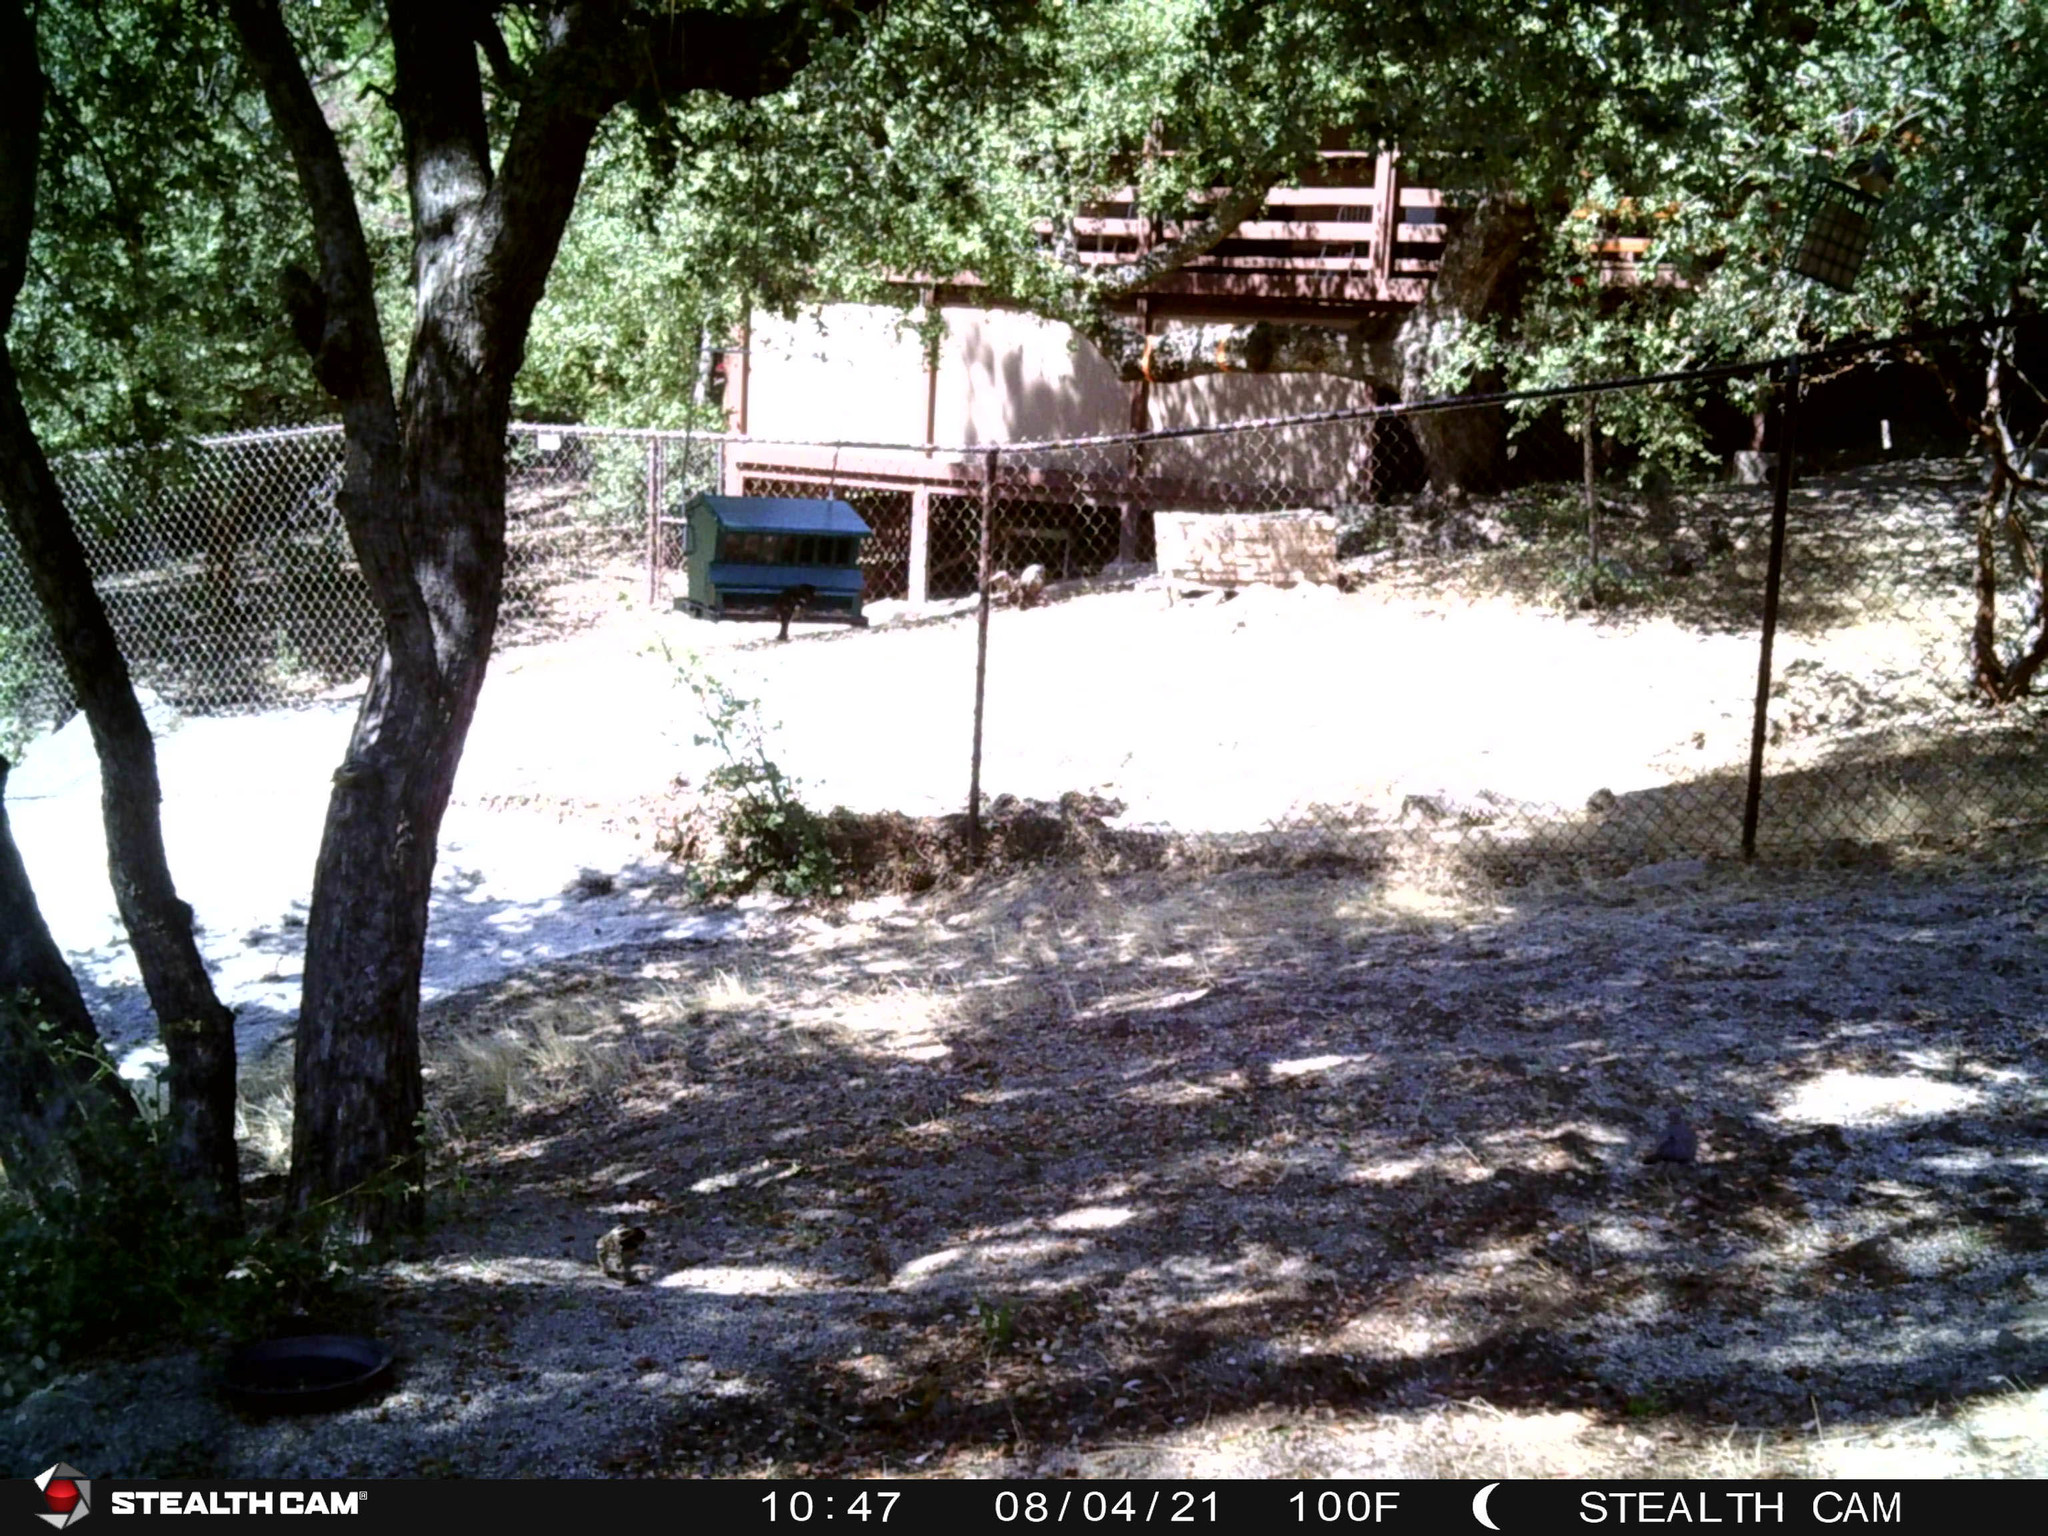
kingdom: Animalia
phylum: Chordata
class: Aves
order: Passeriformes
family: Cardinalidae
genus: Pheucticus
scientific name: Pheucticus melanocephalus
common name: Black-headed grosbeak
